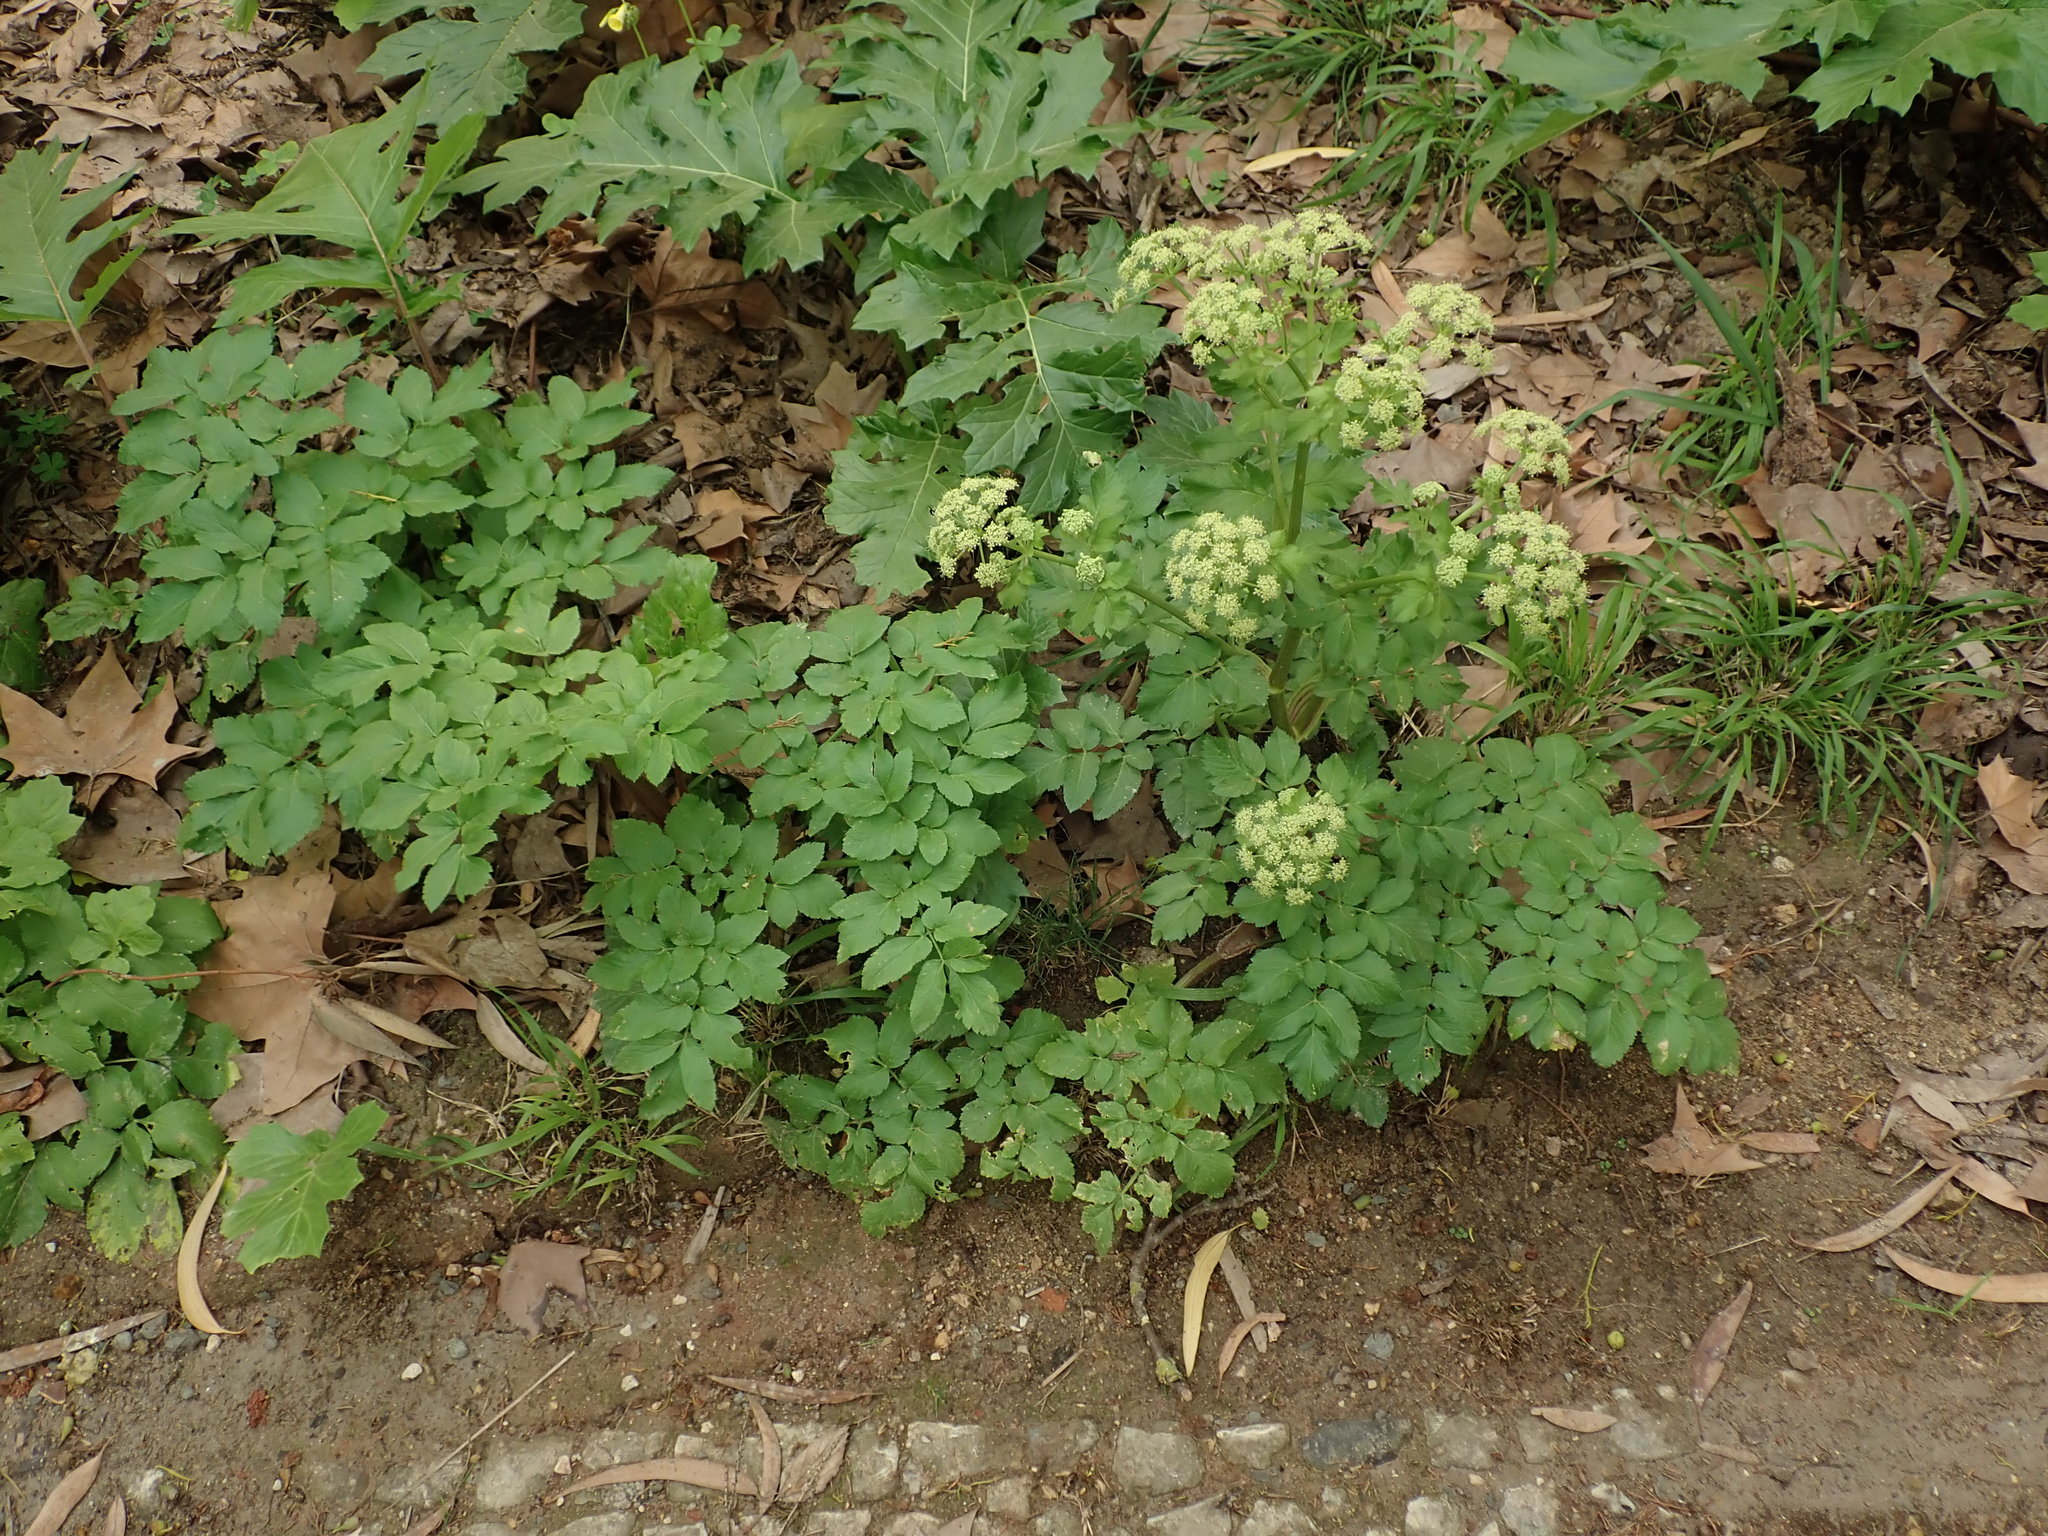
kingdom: Plantae
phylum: Tracheophyta
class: Magnoliopsida
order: Apiales
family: Apiaceae
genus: Smyrnium
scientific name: Smyrnium olusatrum
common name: Alexanders
